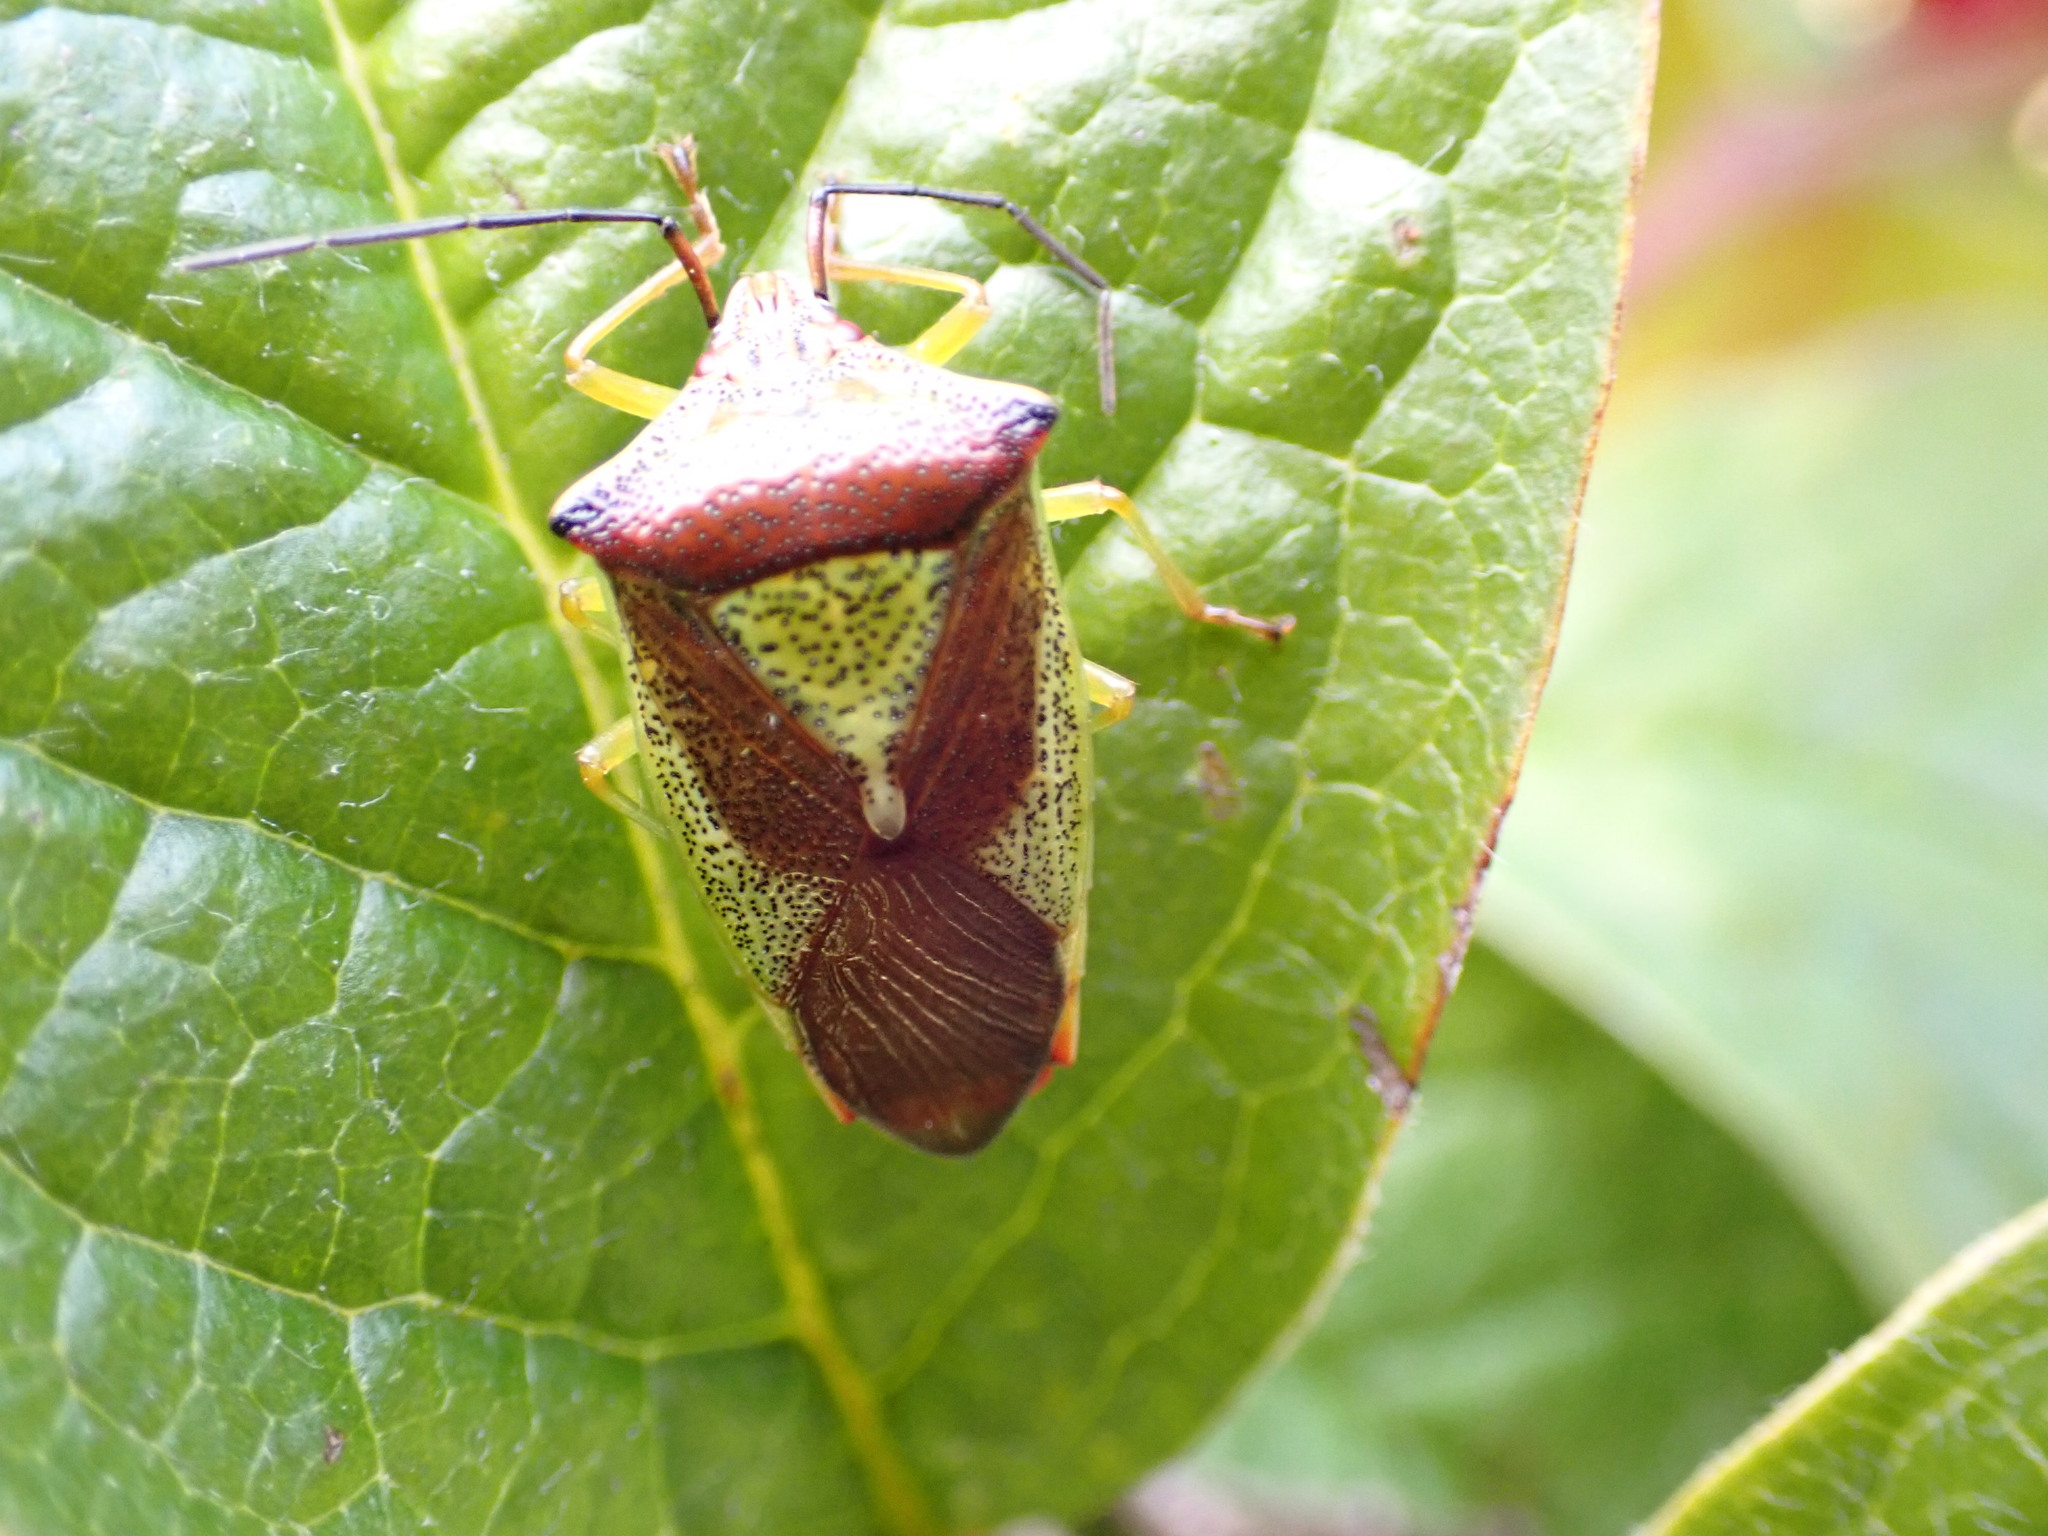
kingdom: Animalia
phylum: Arthropoda
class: Insecta
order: Hemiptera
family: Acanthosomatidae
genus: Acanthosoma
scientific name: Acanthosoma haemorrhoidale
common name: Hawthorn shieldbug
